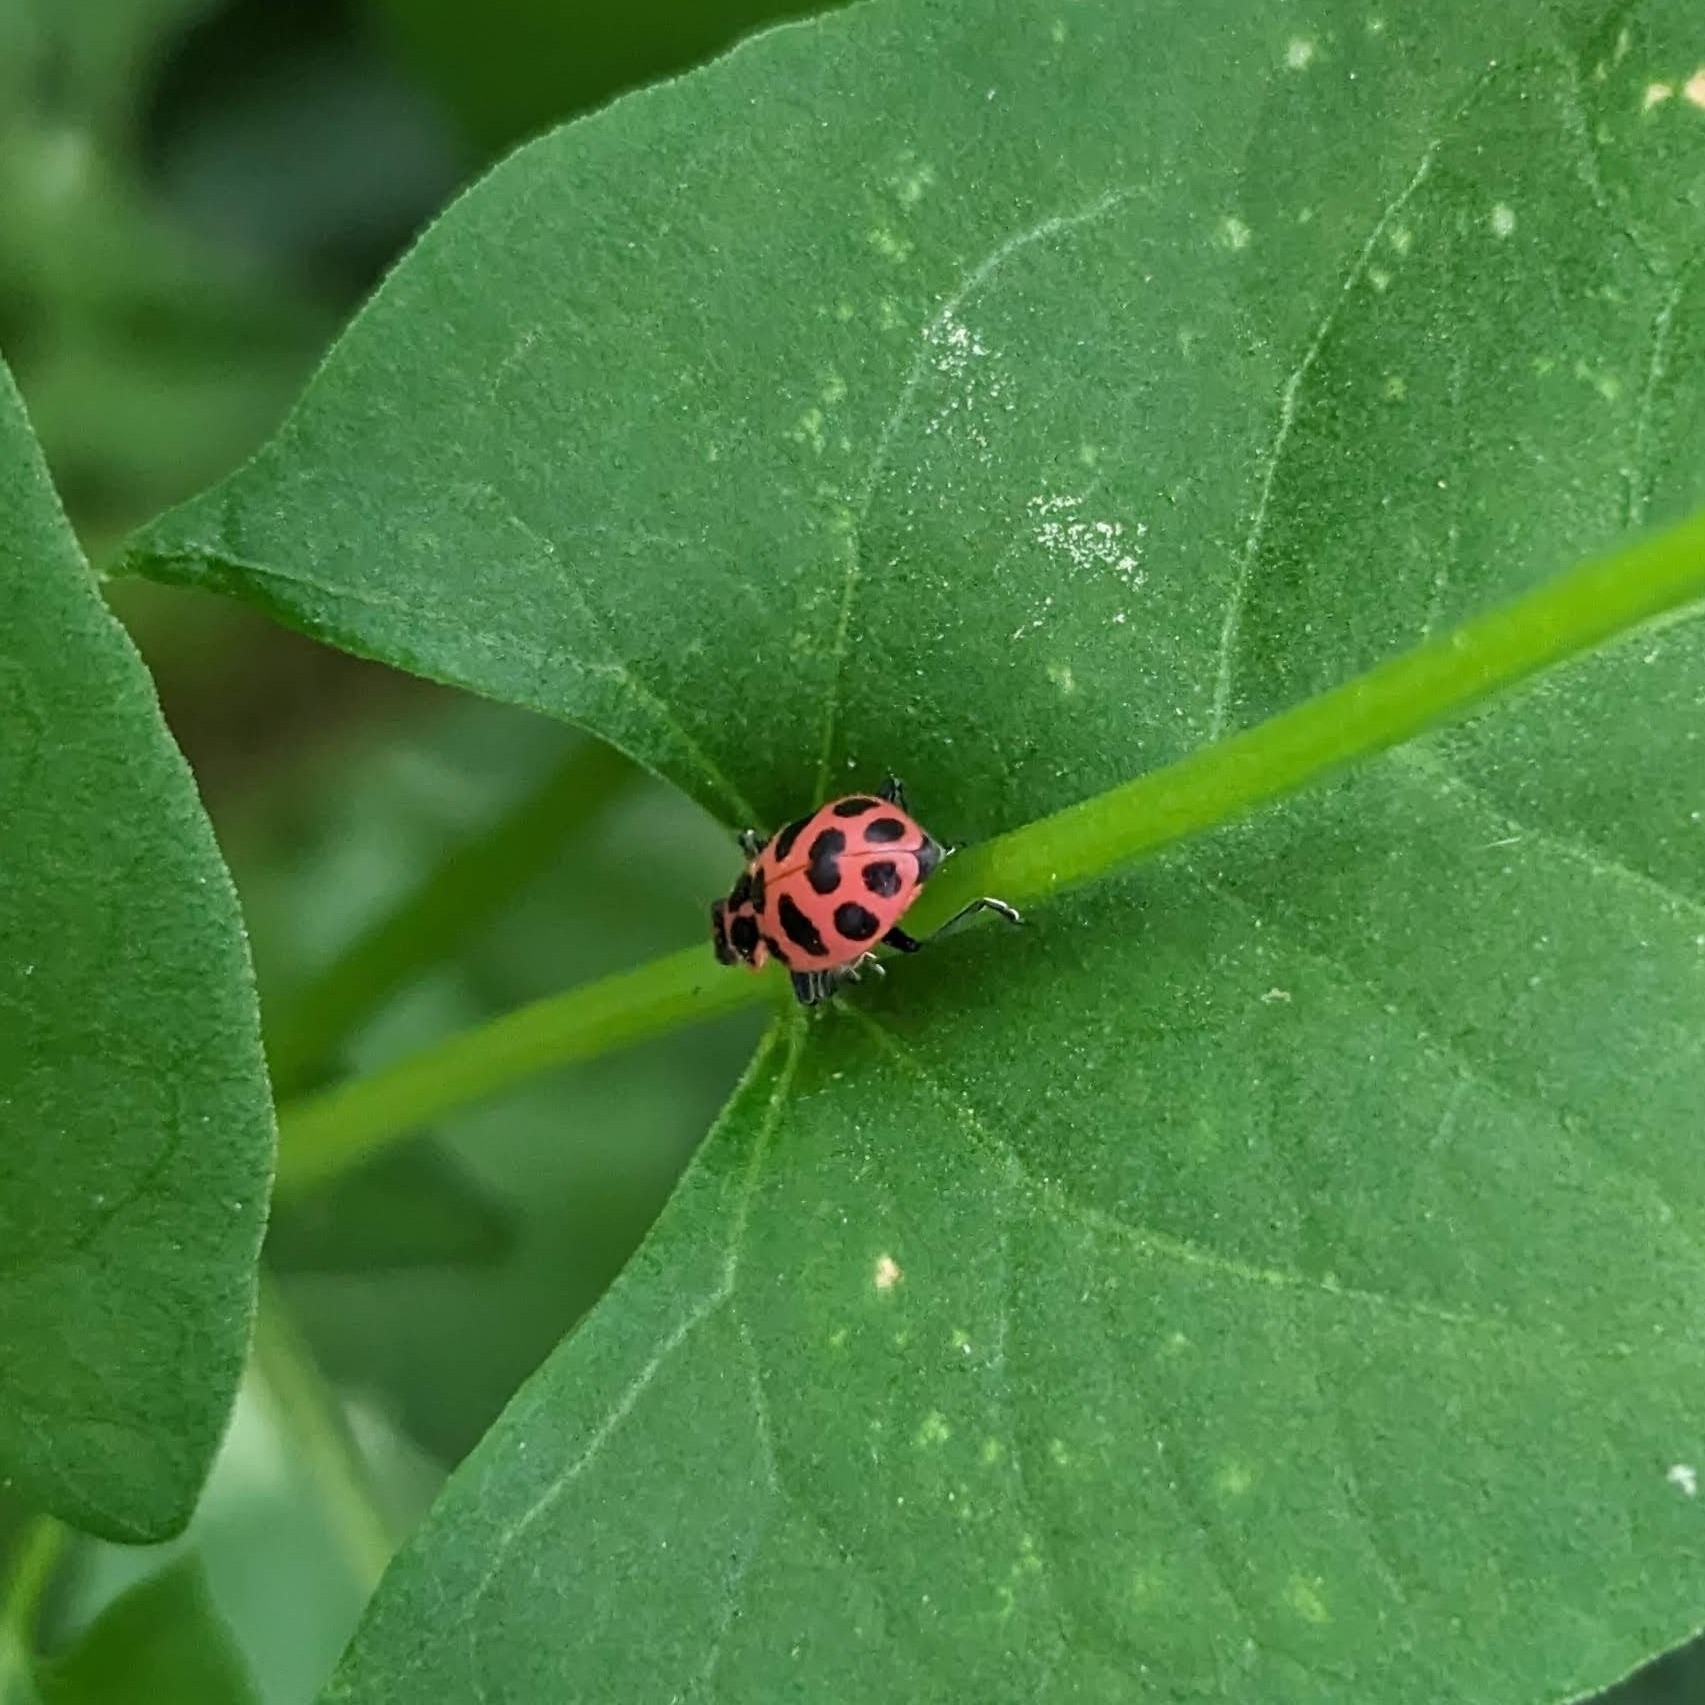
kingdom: Animalia
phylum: Arthropoda
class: Insecta
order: Coleoptera
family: Coccinellidae
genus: Coleomegilla
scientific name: Coleomegilla maculata
